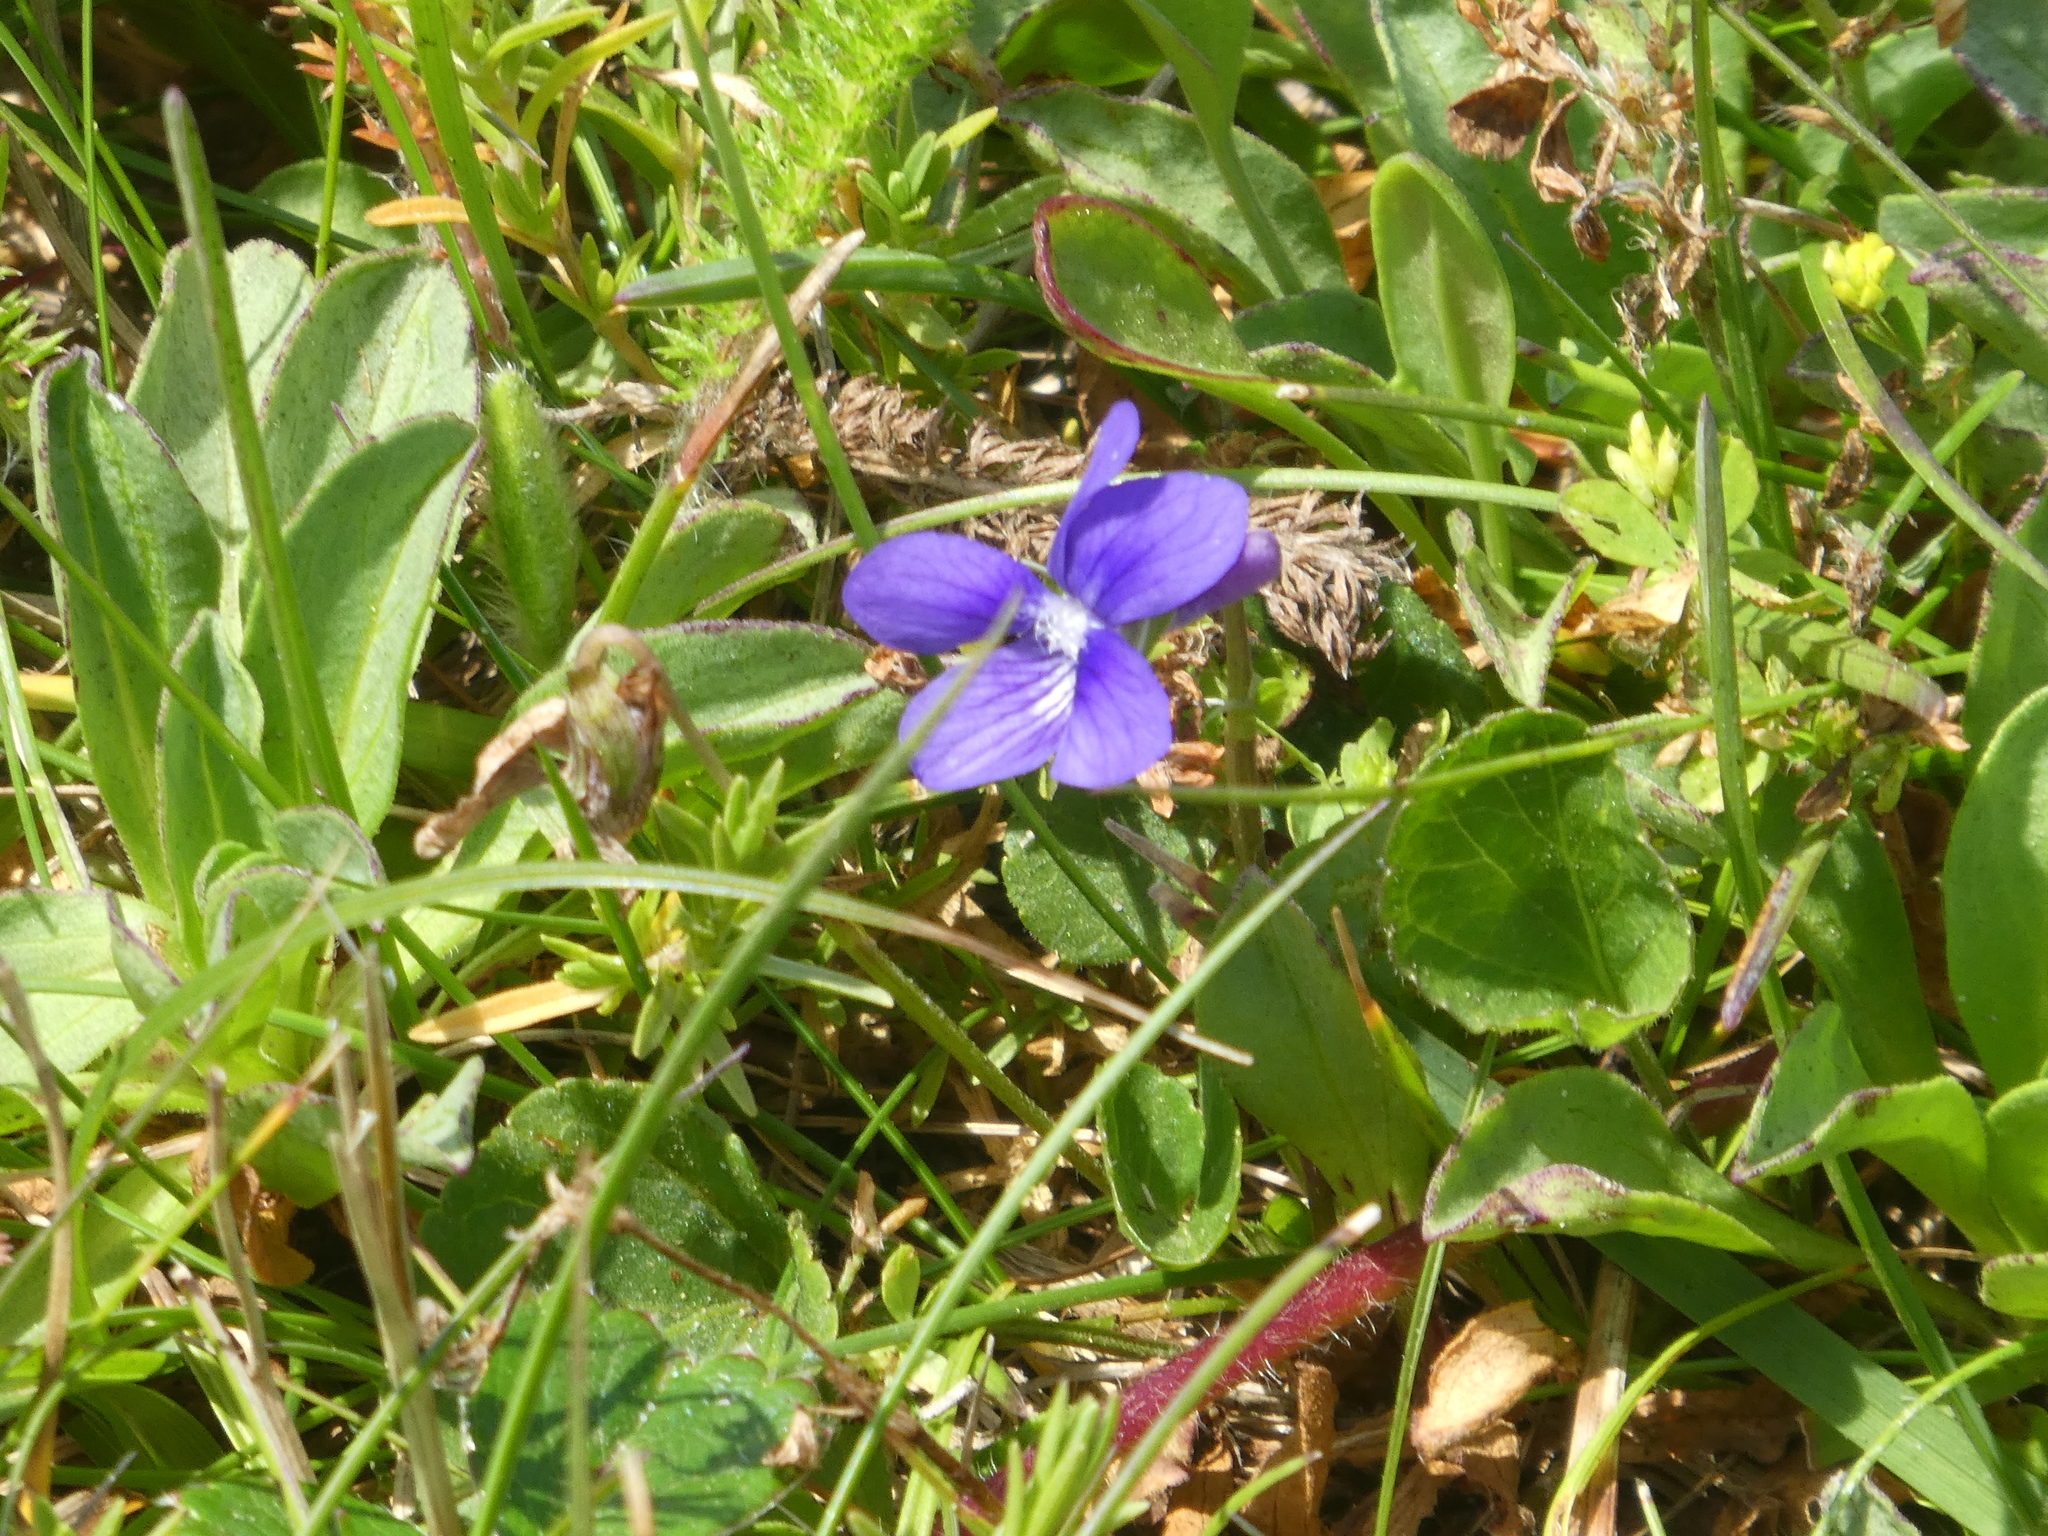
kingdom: Plantae
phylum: Tracheophyta
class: Magnoliopsida
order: Malpighiales
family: Violaceae
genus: Viola
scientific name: Viola adunca
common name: Sand violet
